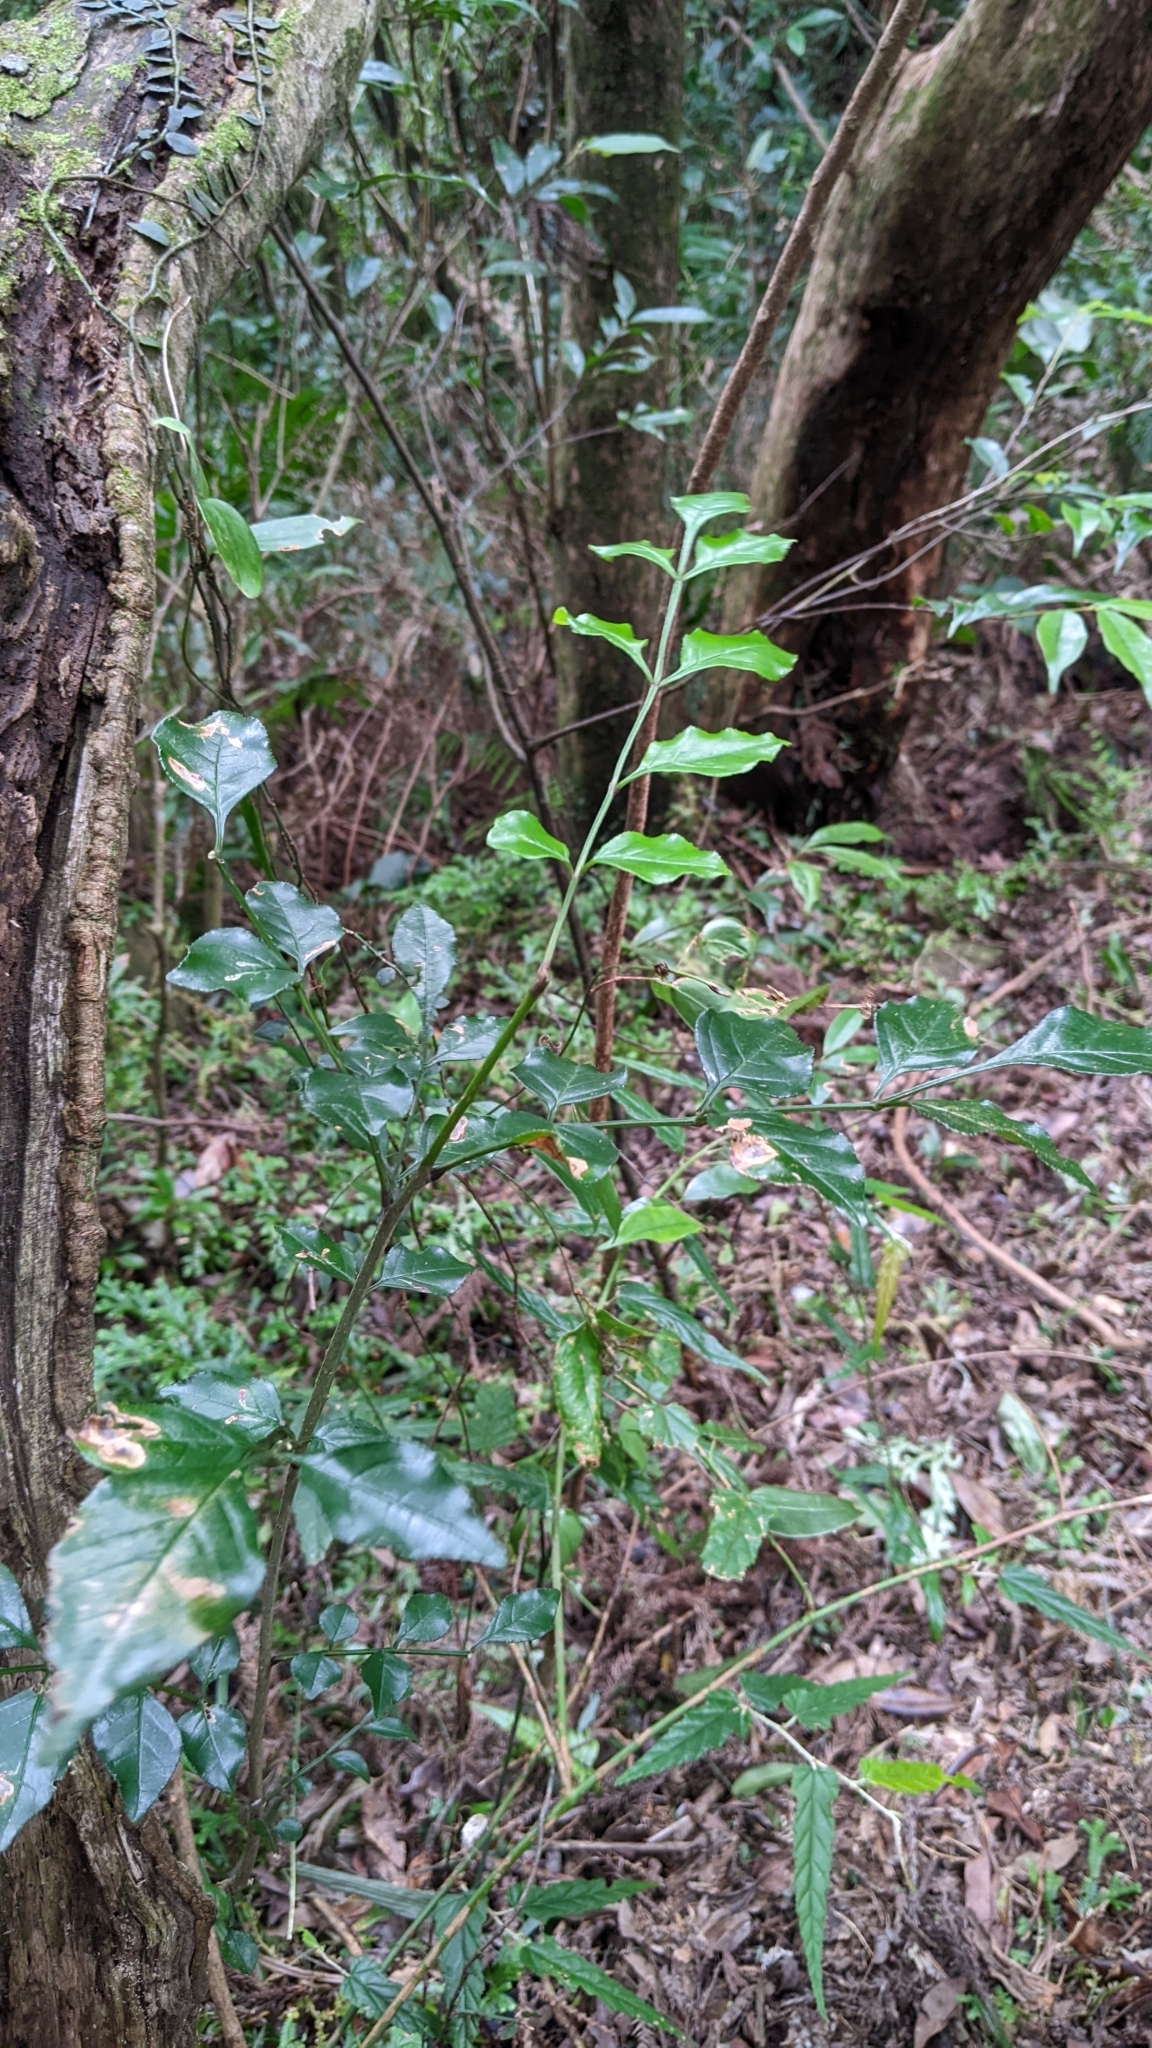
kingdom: Plantae
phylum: Tracheophyta
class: Magnoliopsida
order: Lamiales
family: Oleaceae
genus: Fraxinus
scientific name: Fraxinus griffithii
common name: Himalayan ash
